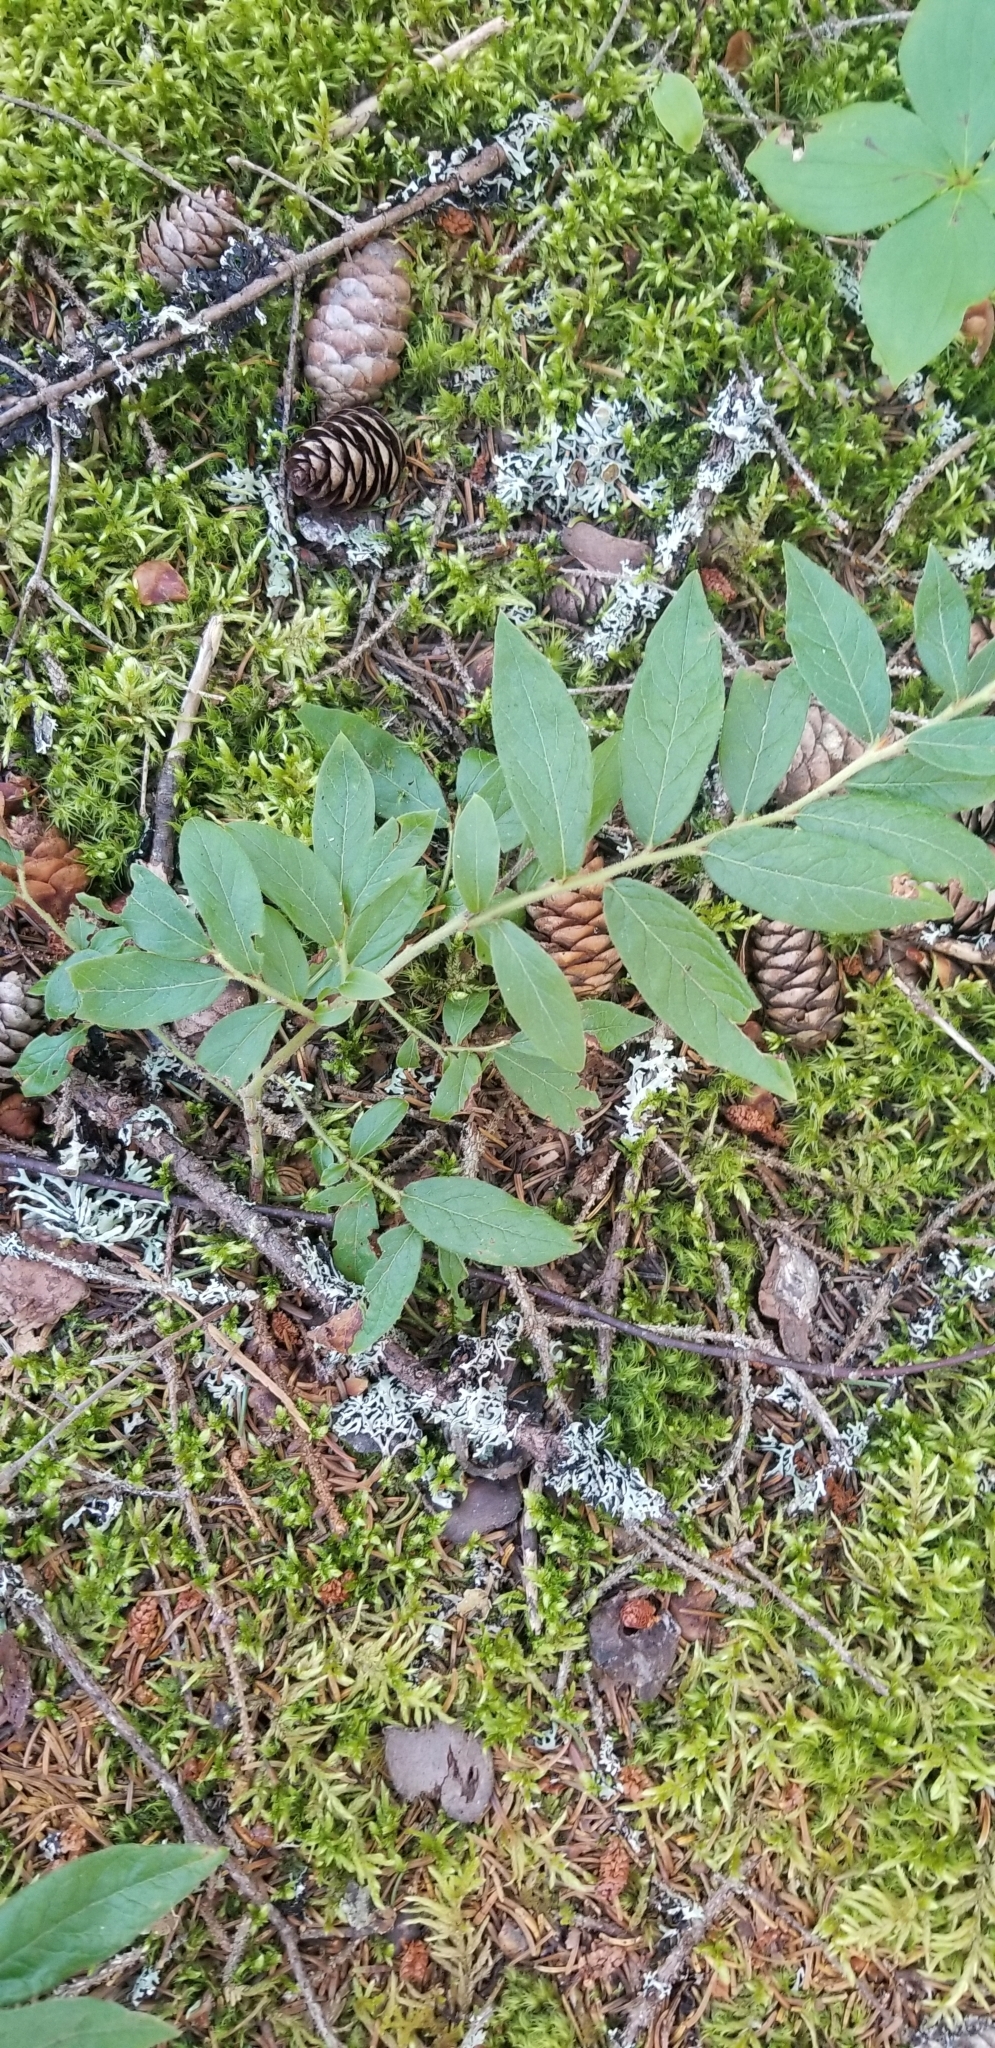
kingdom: Plantae
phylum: Tracheophyta
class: Magnoliopsida
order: Ericales
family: Ericaceae
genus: Vaccinium
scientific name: Vaccinium myrtilloides
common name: Canada blueberry
